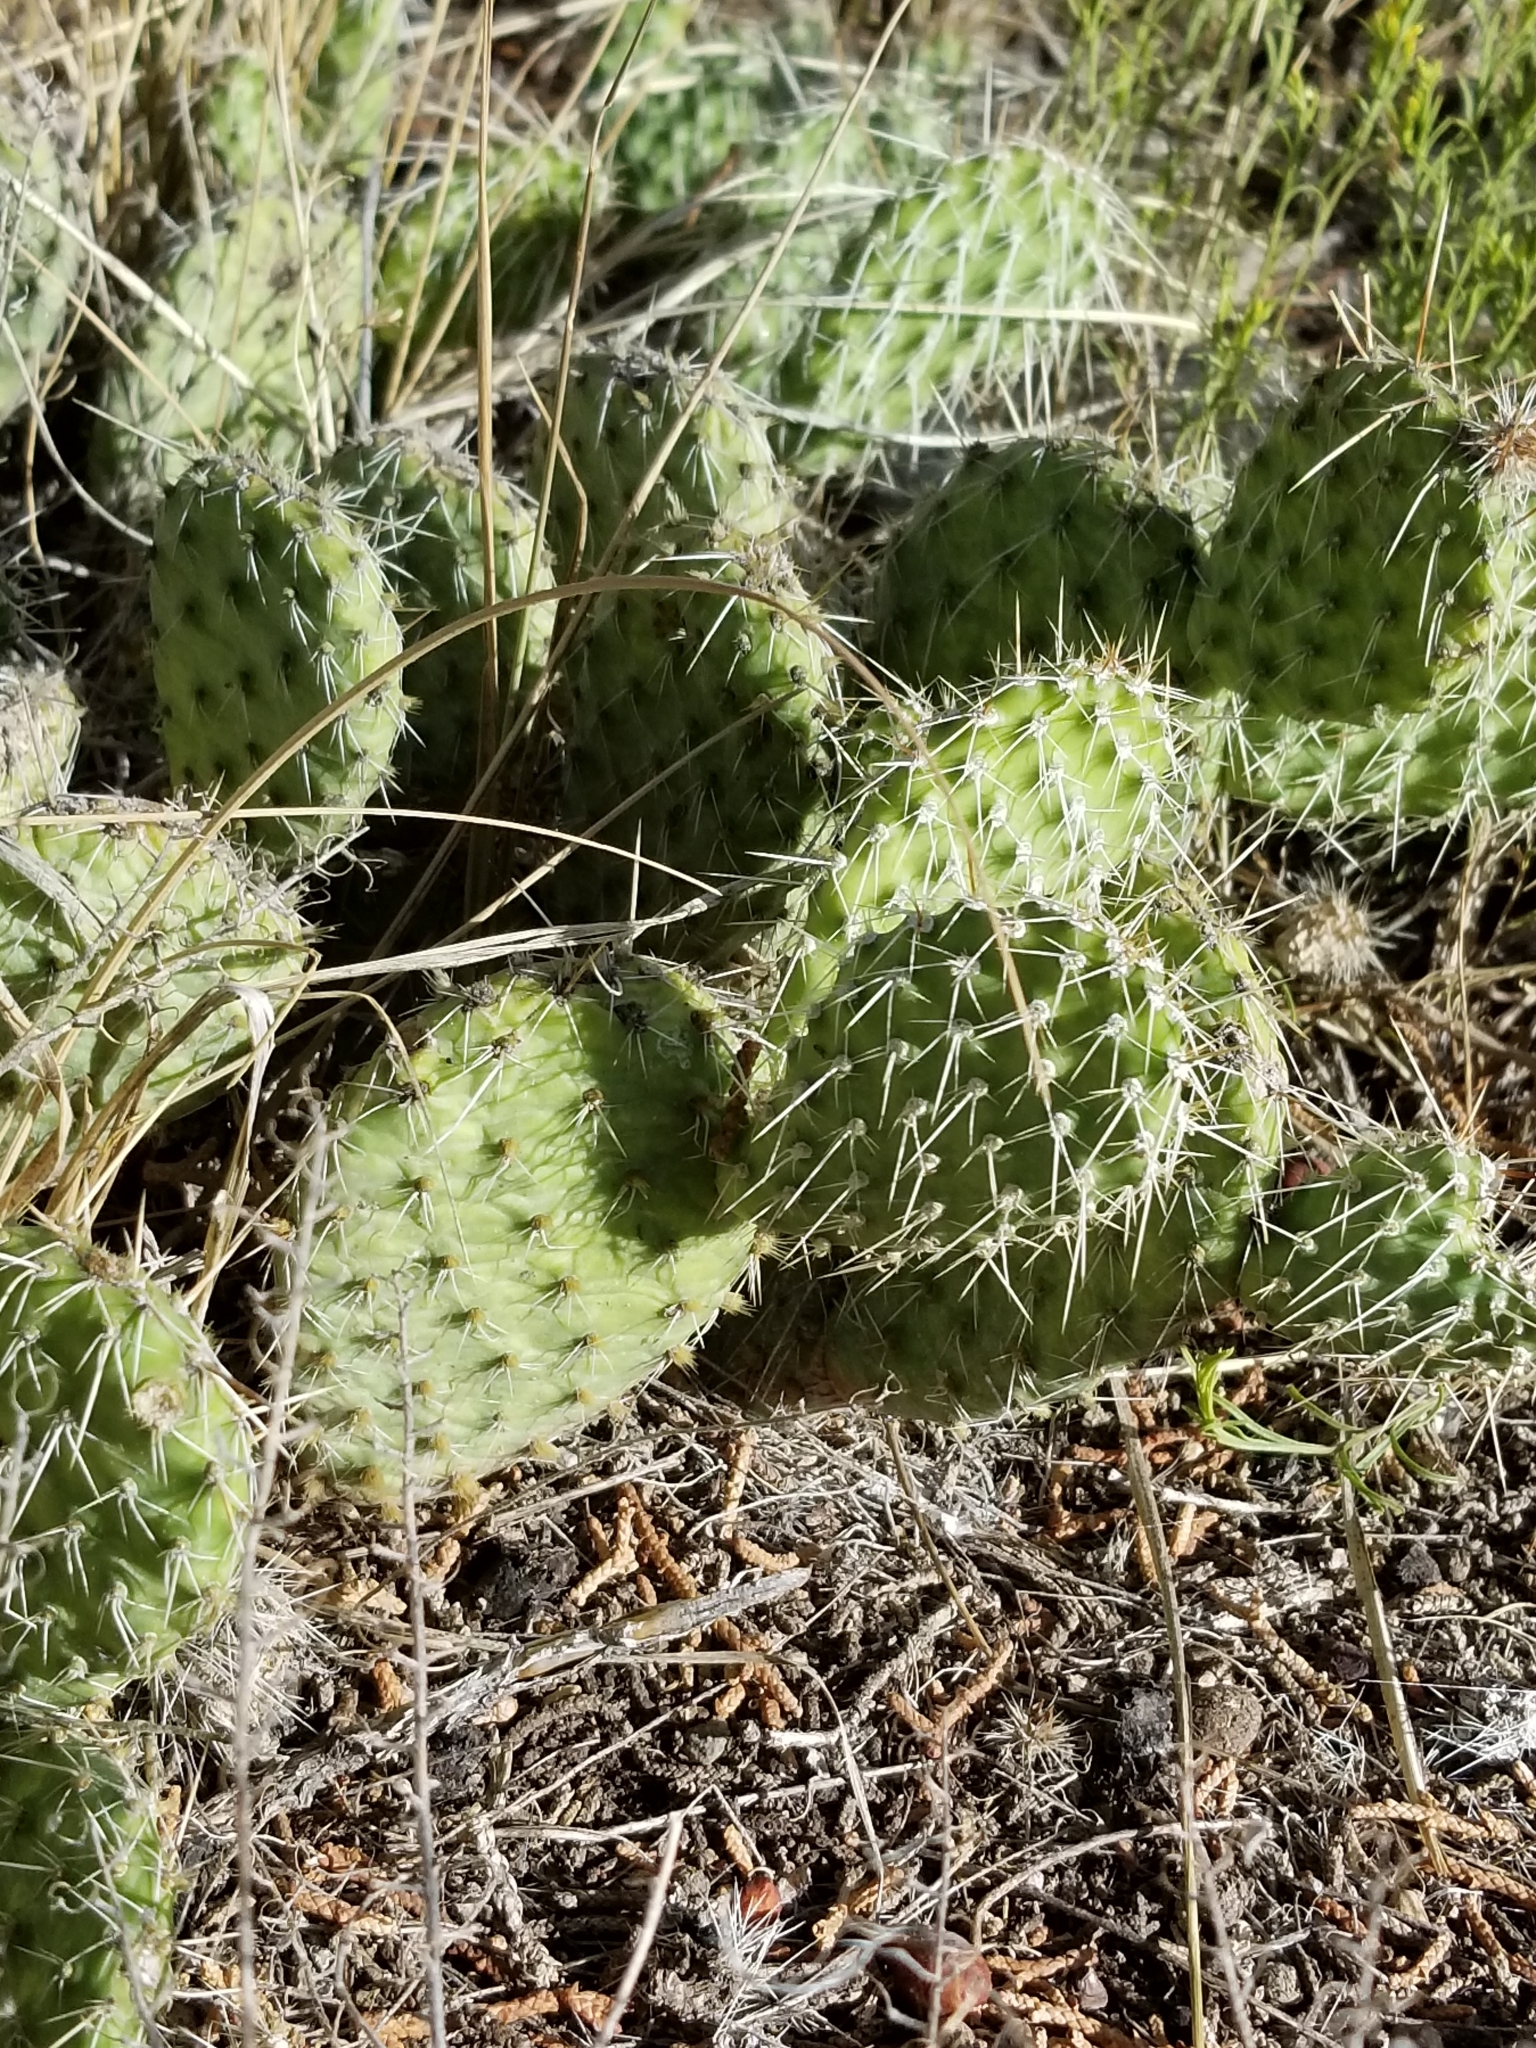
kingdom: Plantae
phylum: Tracheophyta
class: Magnoliopsida
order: Caryophyllales
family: Cactaceae
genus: Opuntia
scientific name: Opuntia polyacantha
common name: Plains prickly-pear
